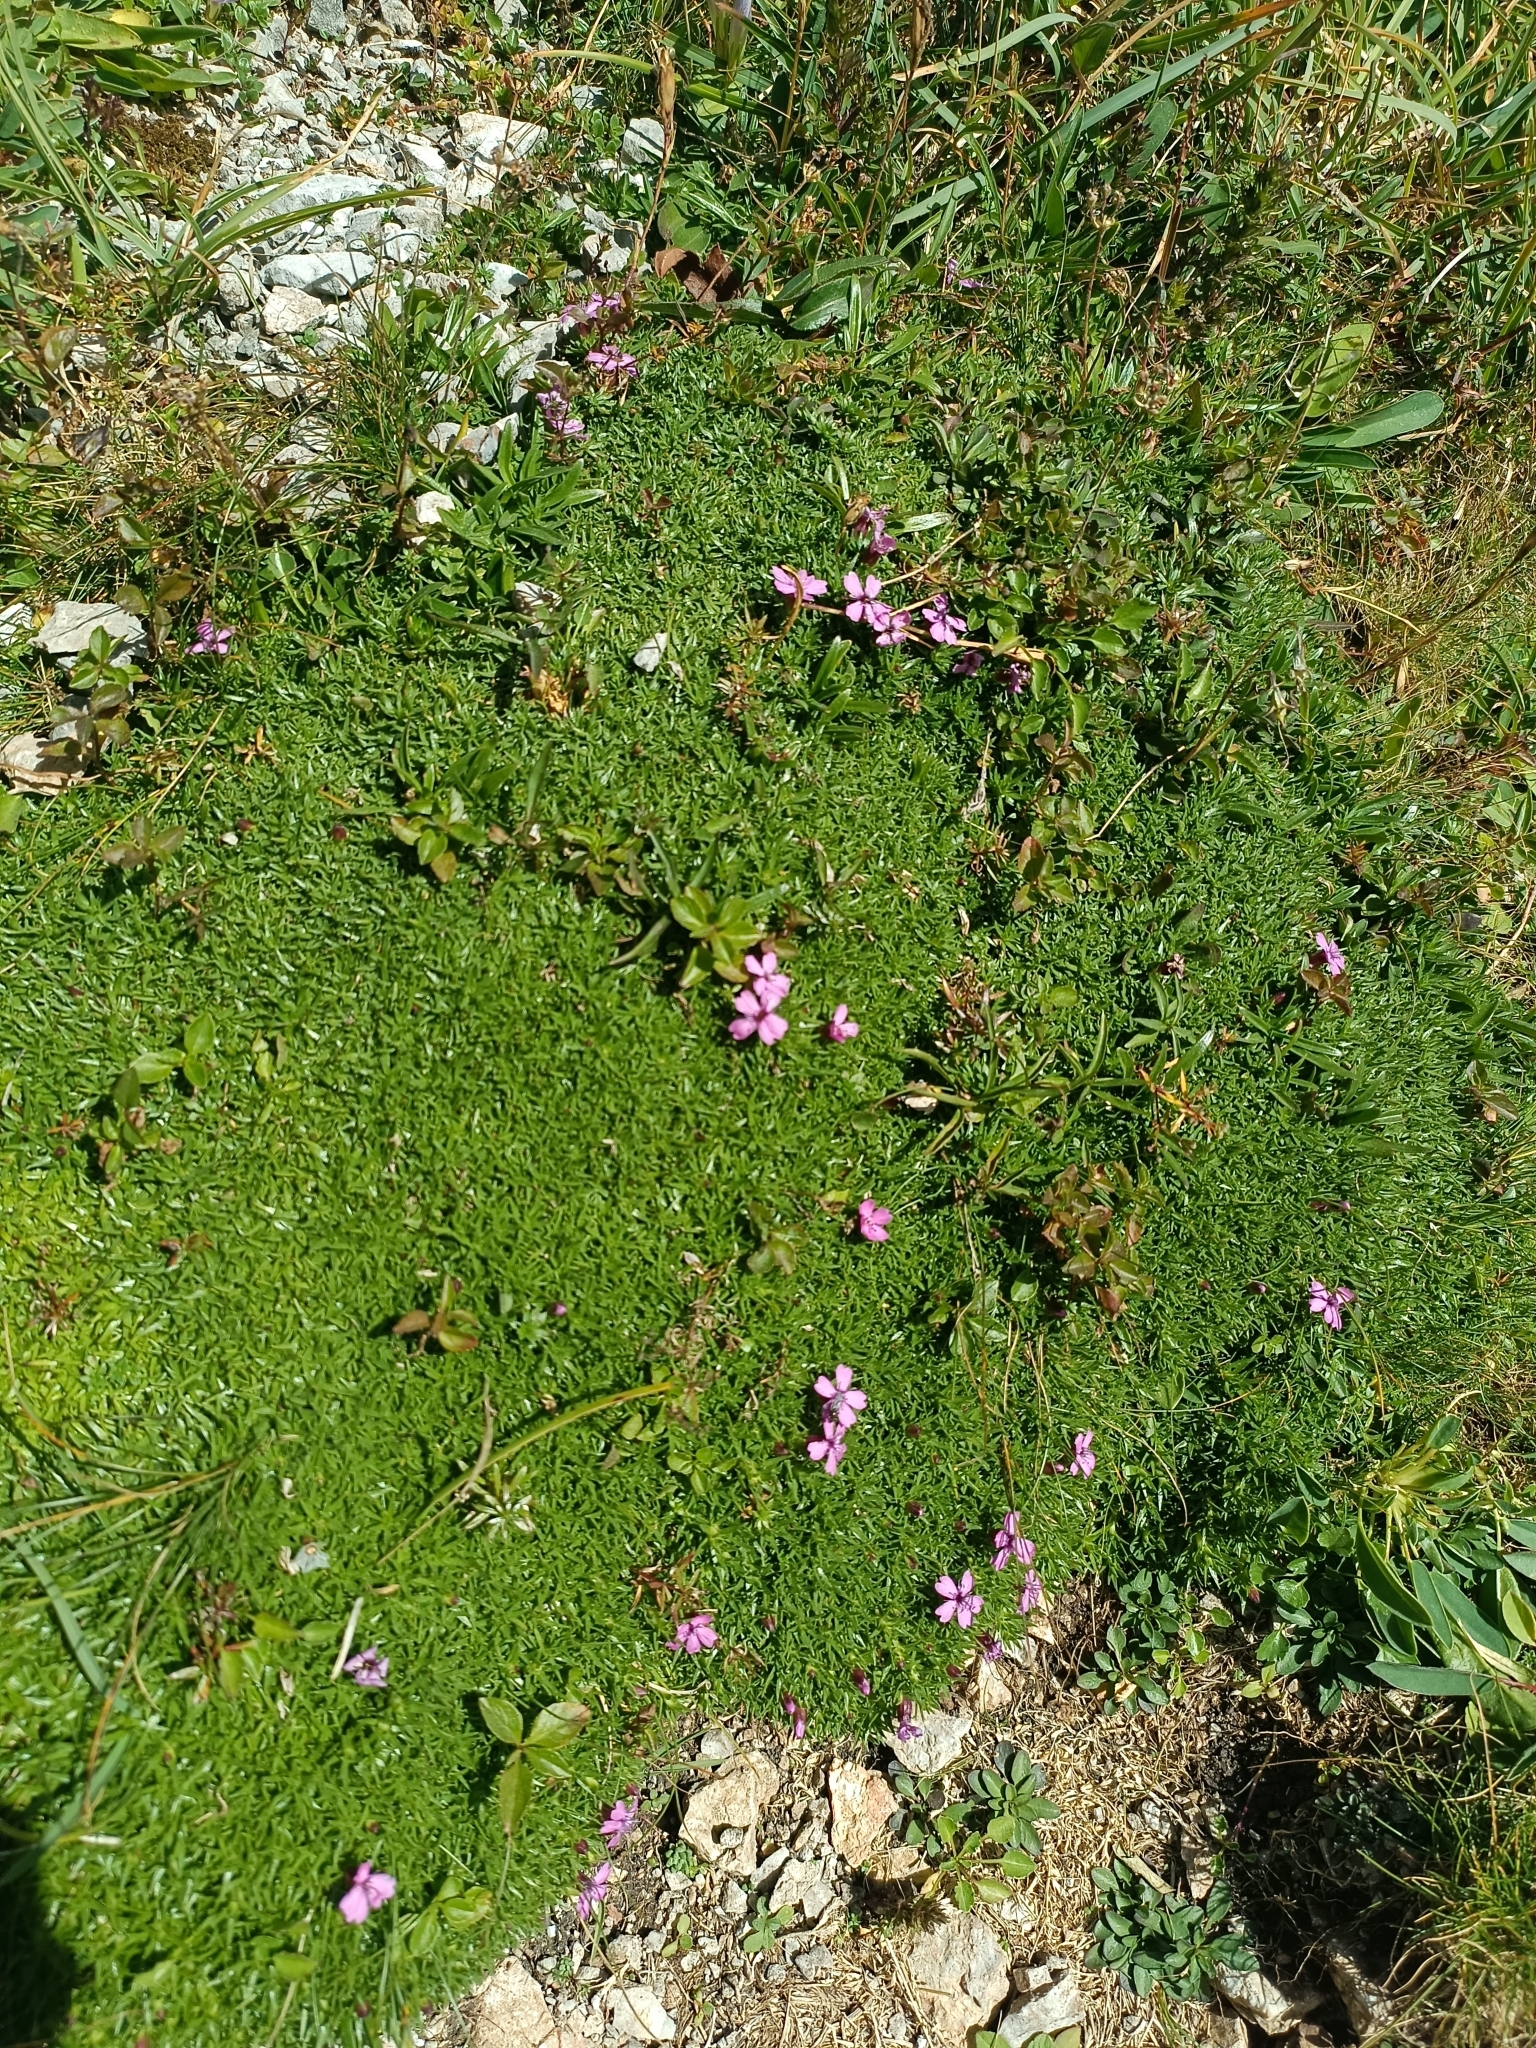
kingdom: Plantae
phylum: Tracheophyta
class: Magnoliopsida
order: Caryophyllales
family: Caryophyllaceae
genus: Silene
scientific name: Silene acaulis
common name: Moss campion
